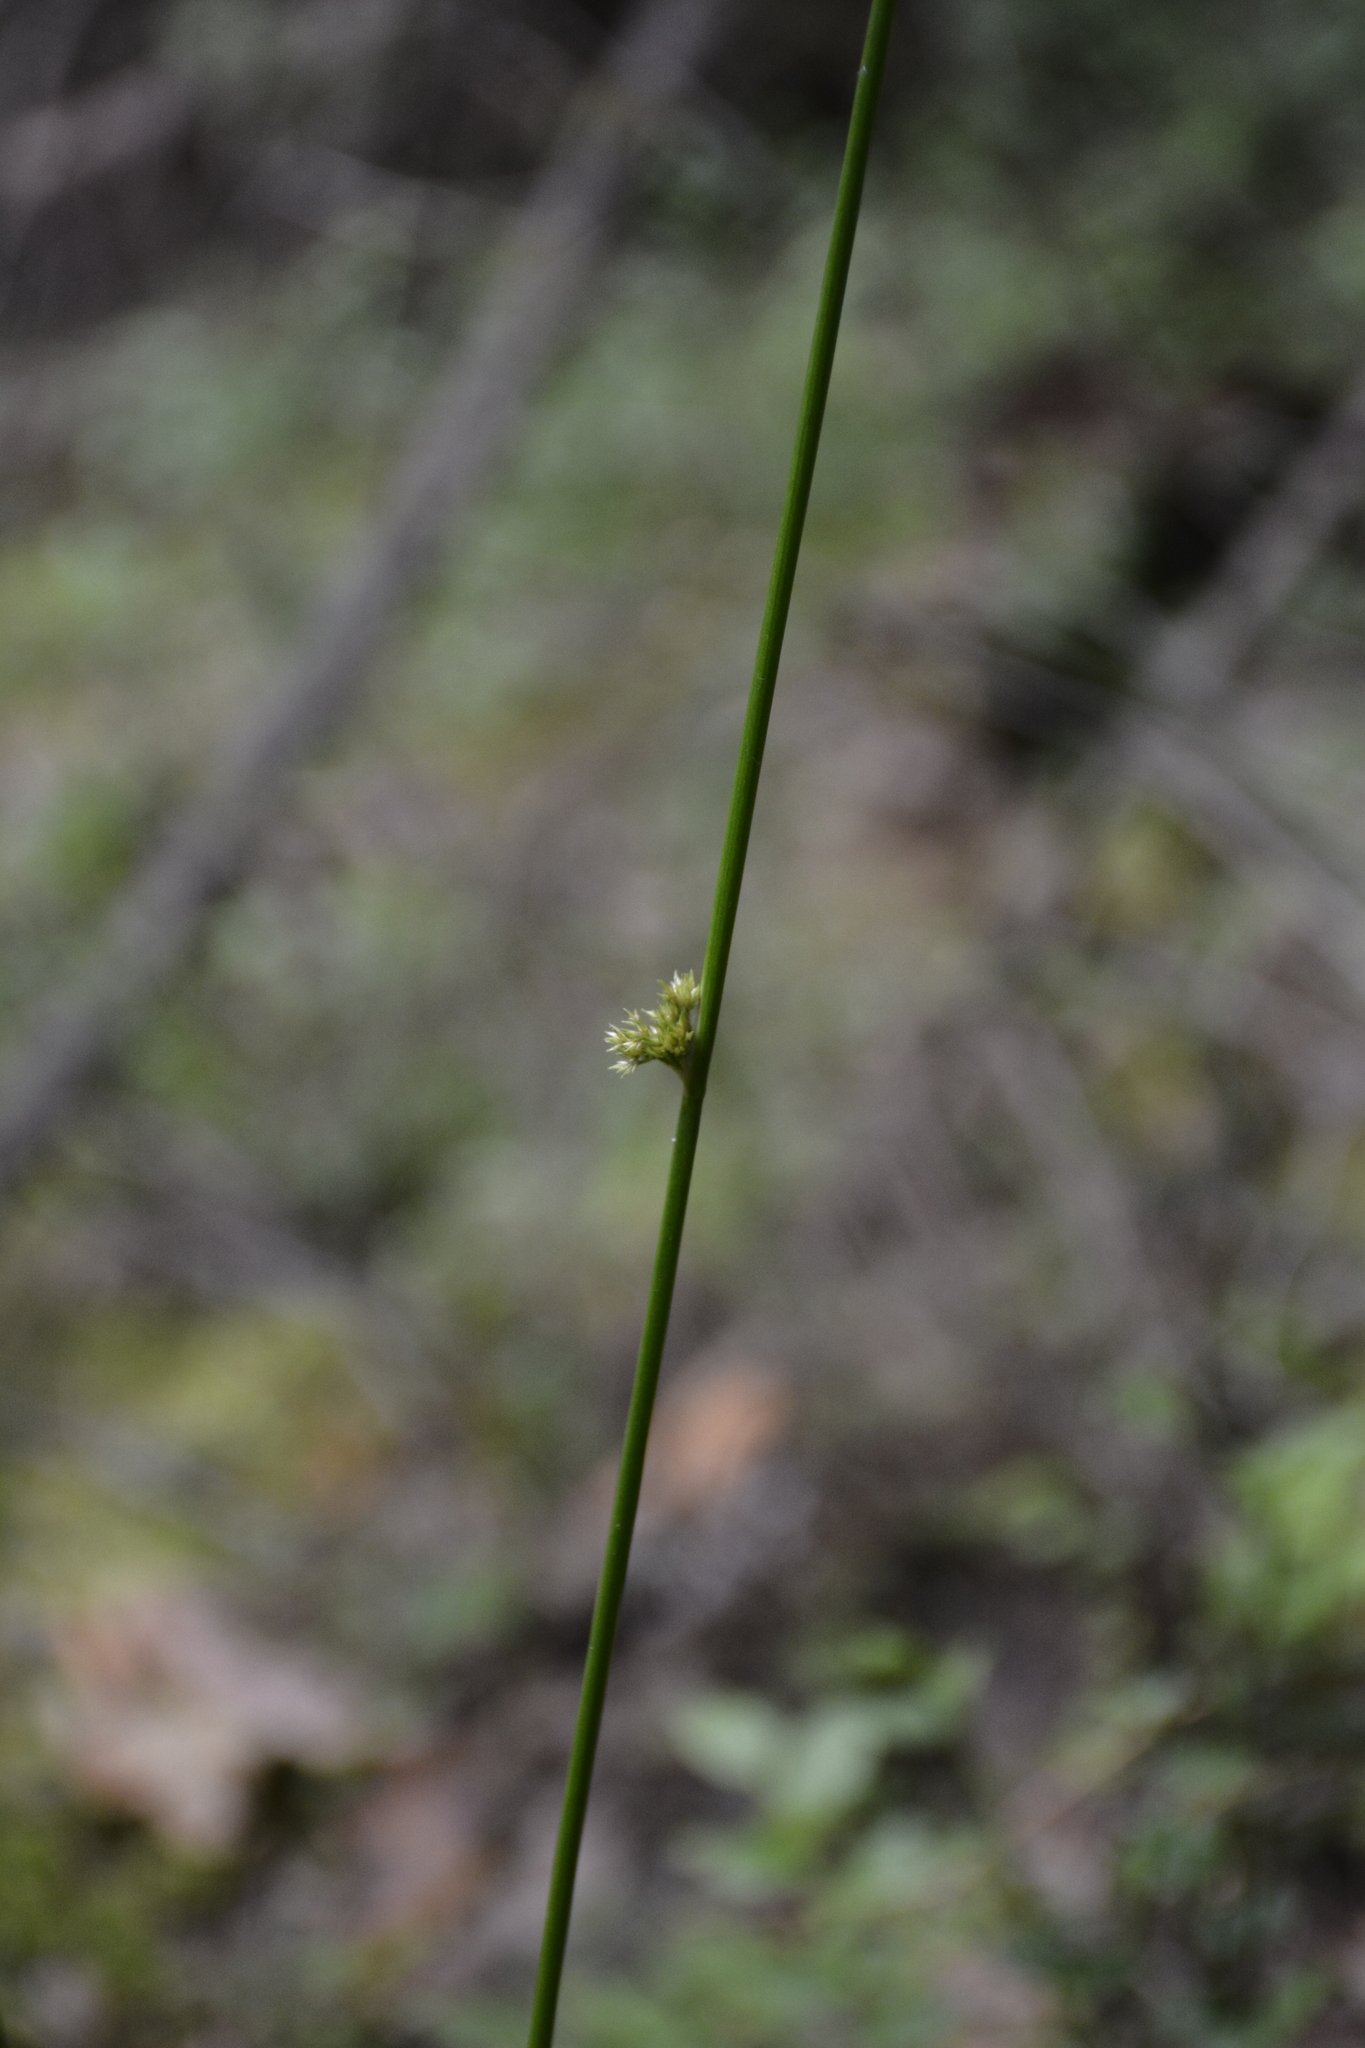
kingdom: Plantae
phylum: Tracheophyta
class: Liliopsida
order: Poales
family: Juncaceae
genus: Juncus
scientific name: Juncus effusus
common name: Soft rush
